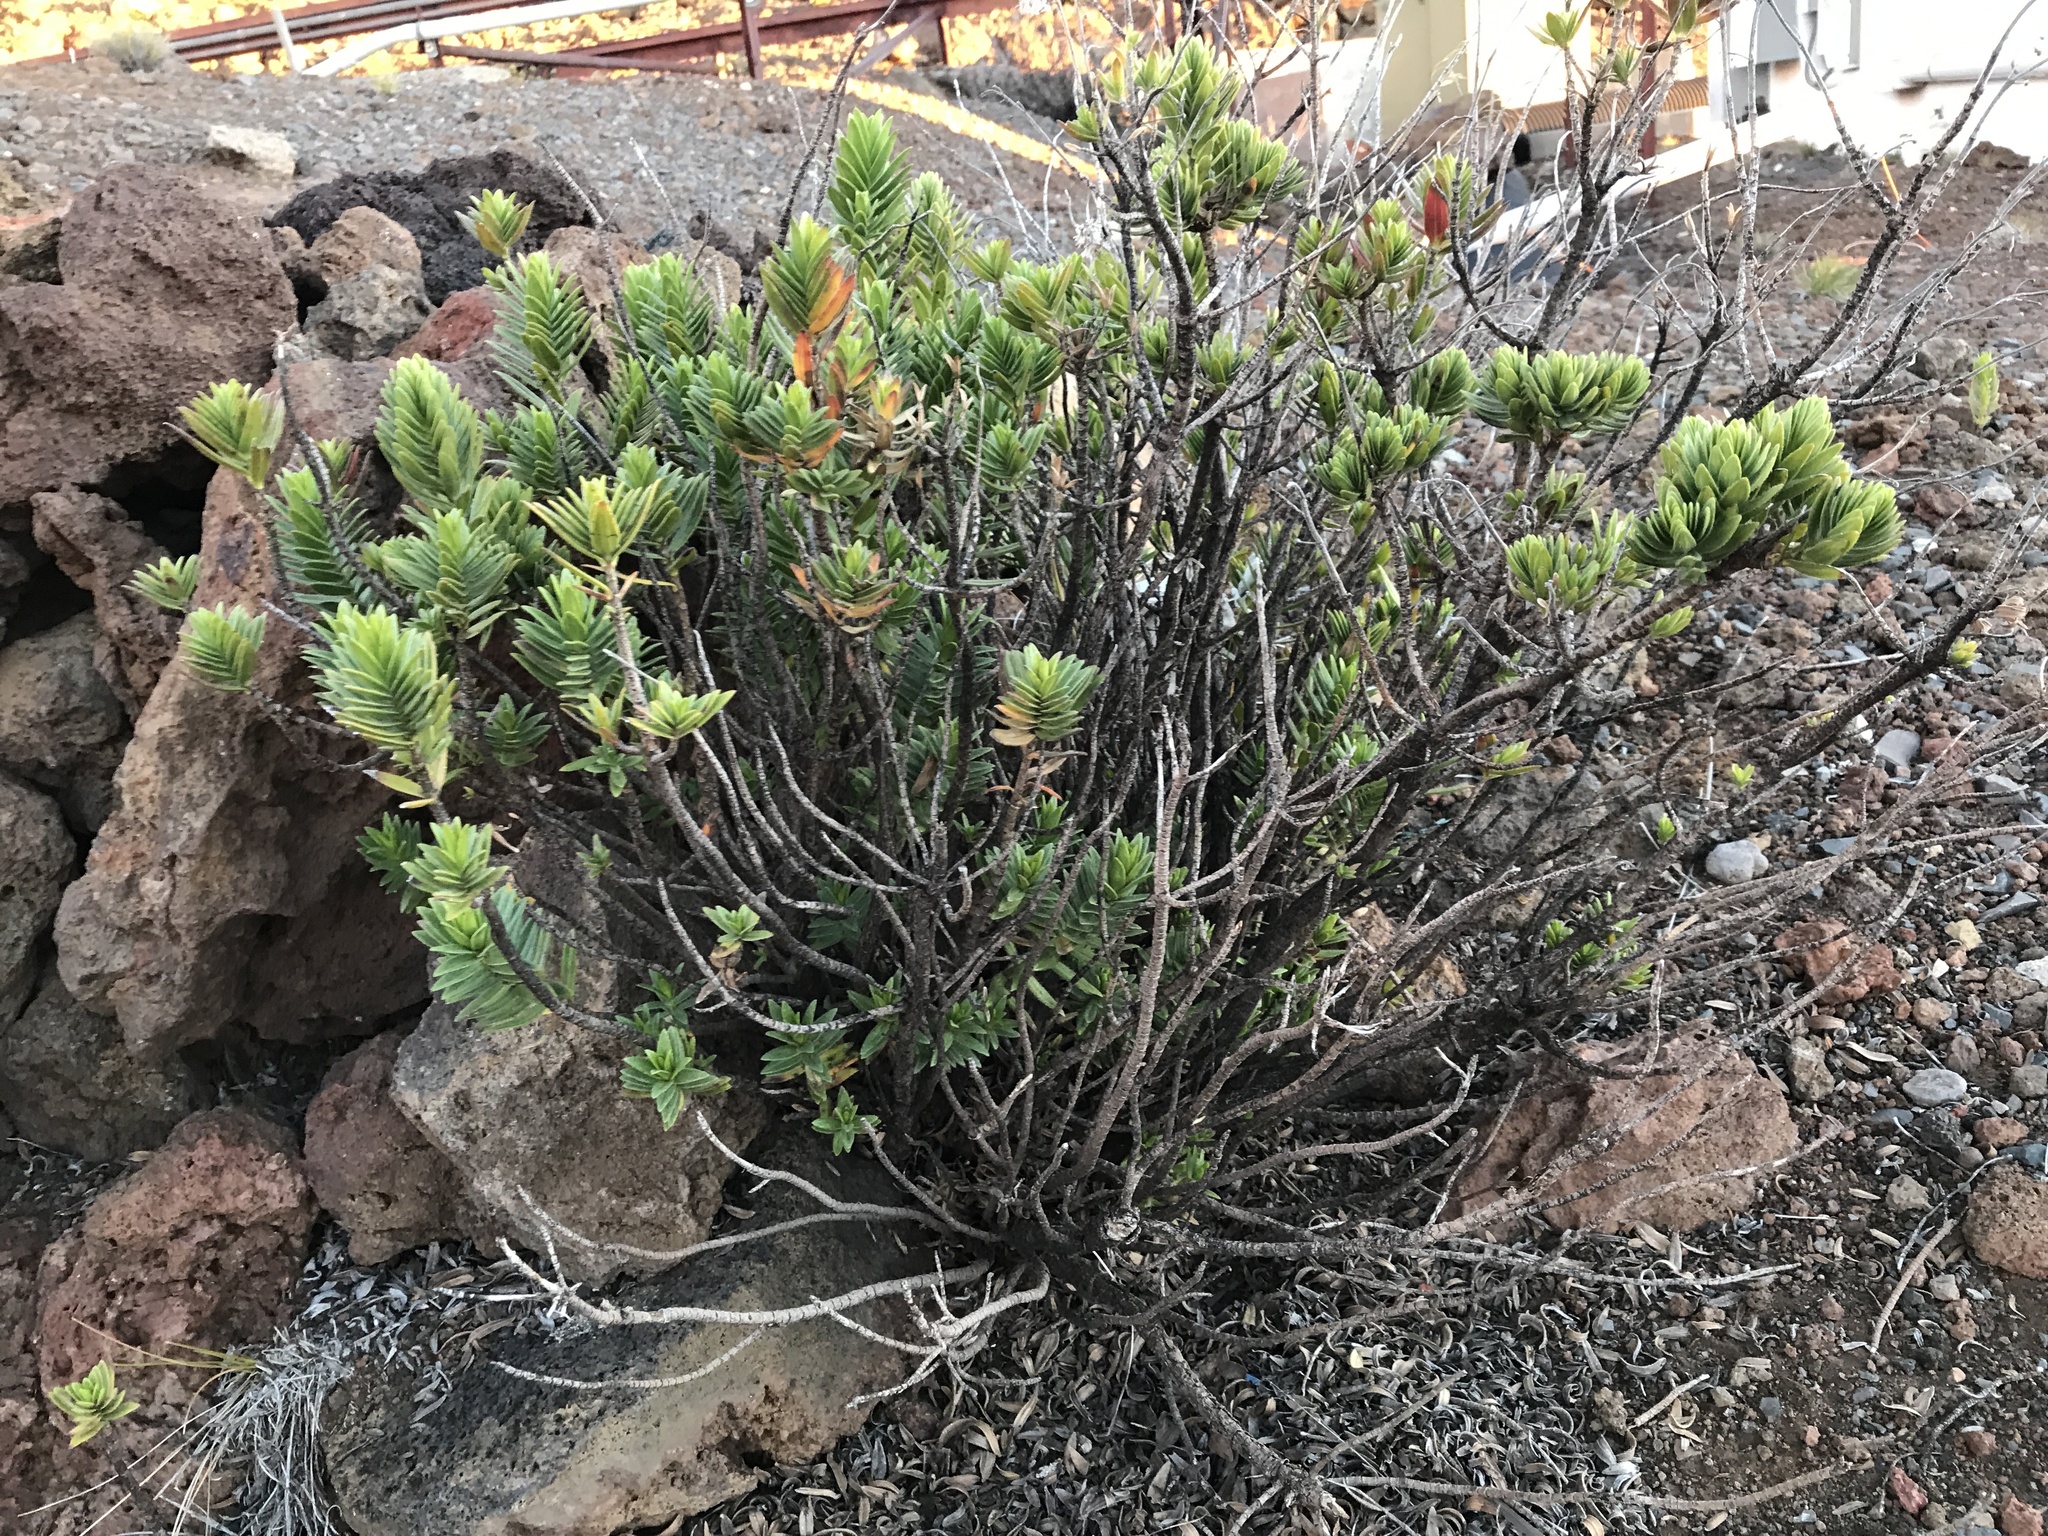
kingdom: Plantae
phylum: Tracheophyta
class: Magnoliopsida
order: Asterales
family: Asteraceae
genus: Dubautia
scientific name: Dubautia menziesii
